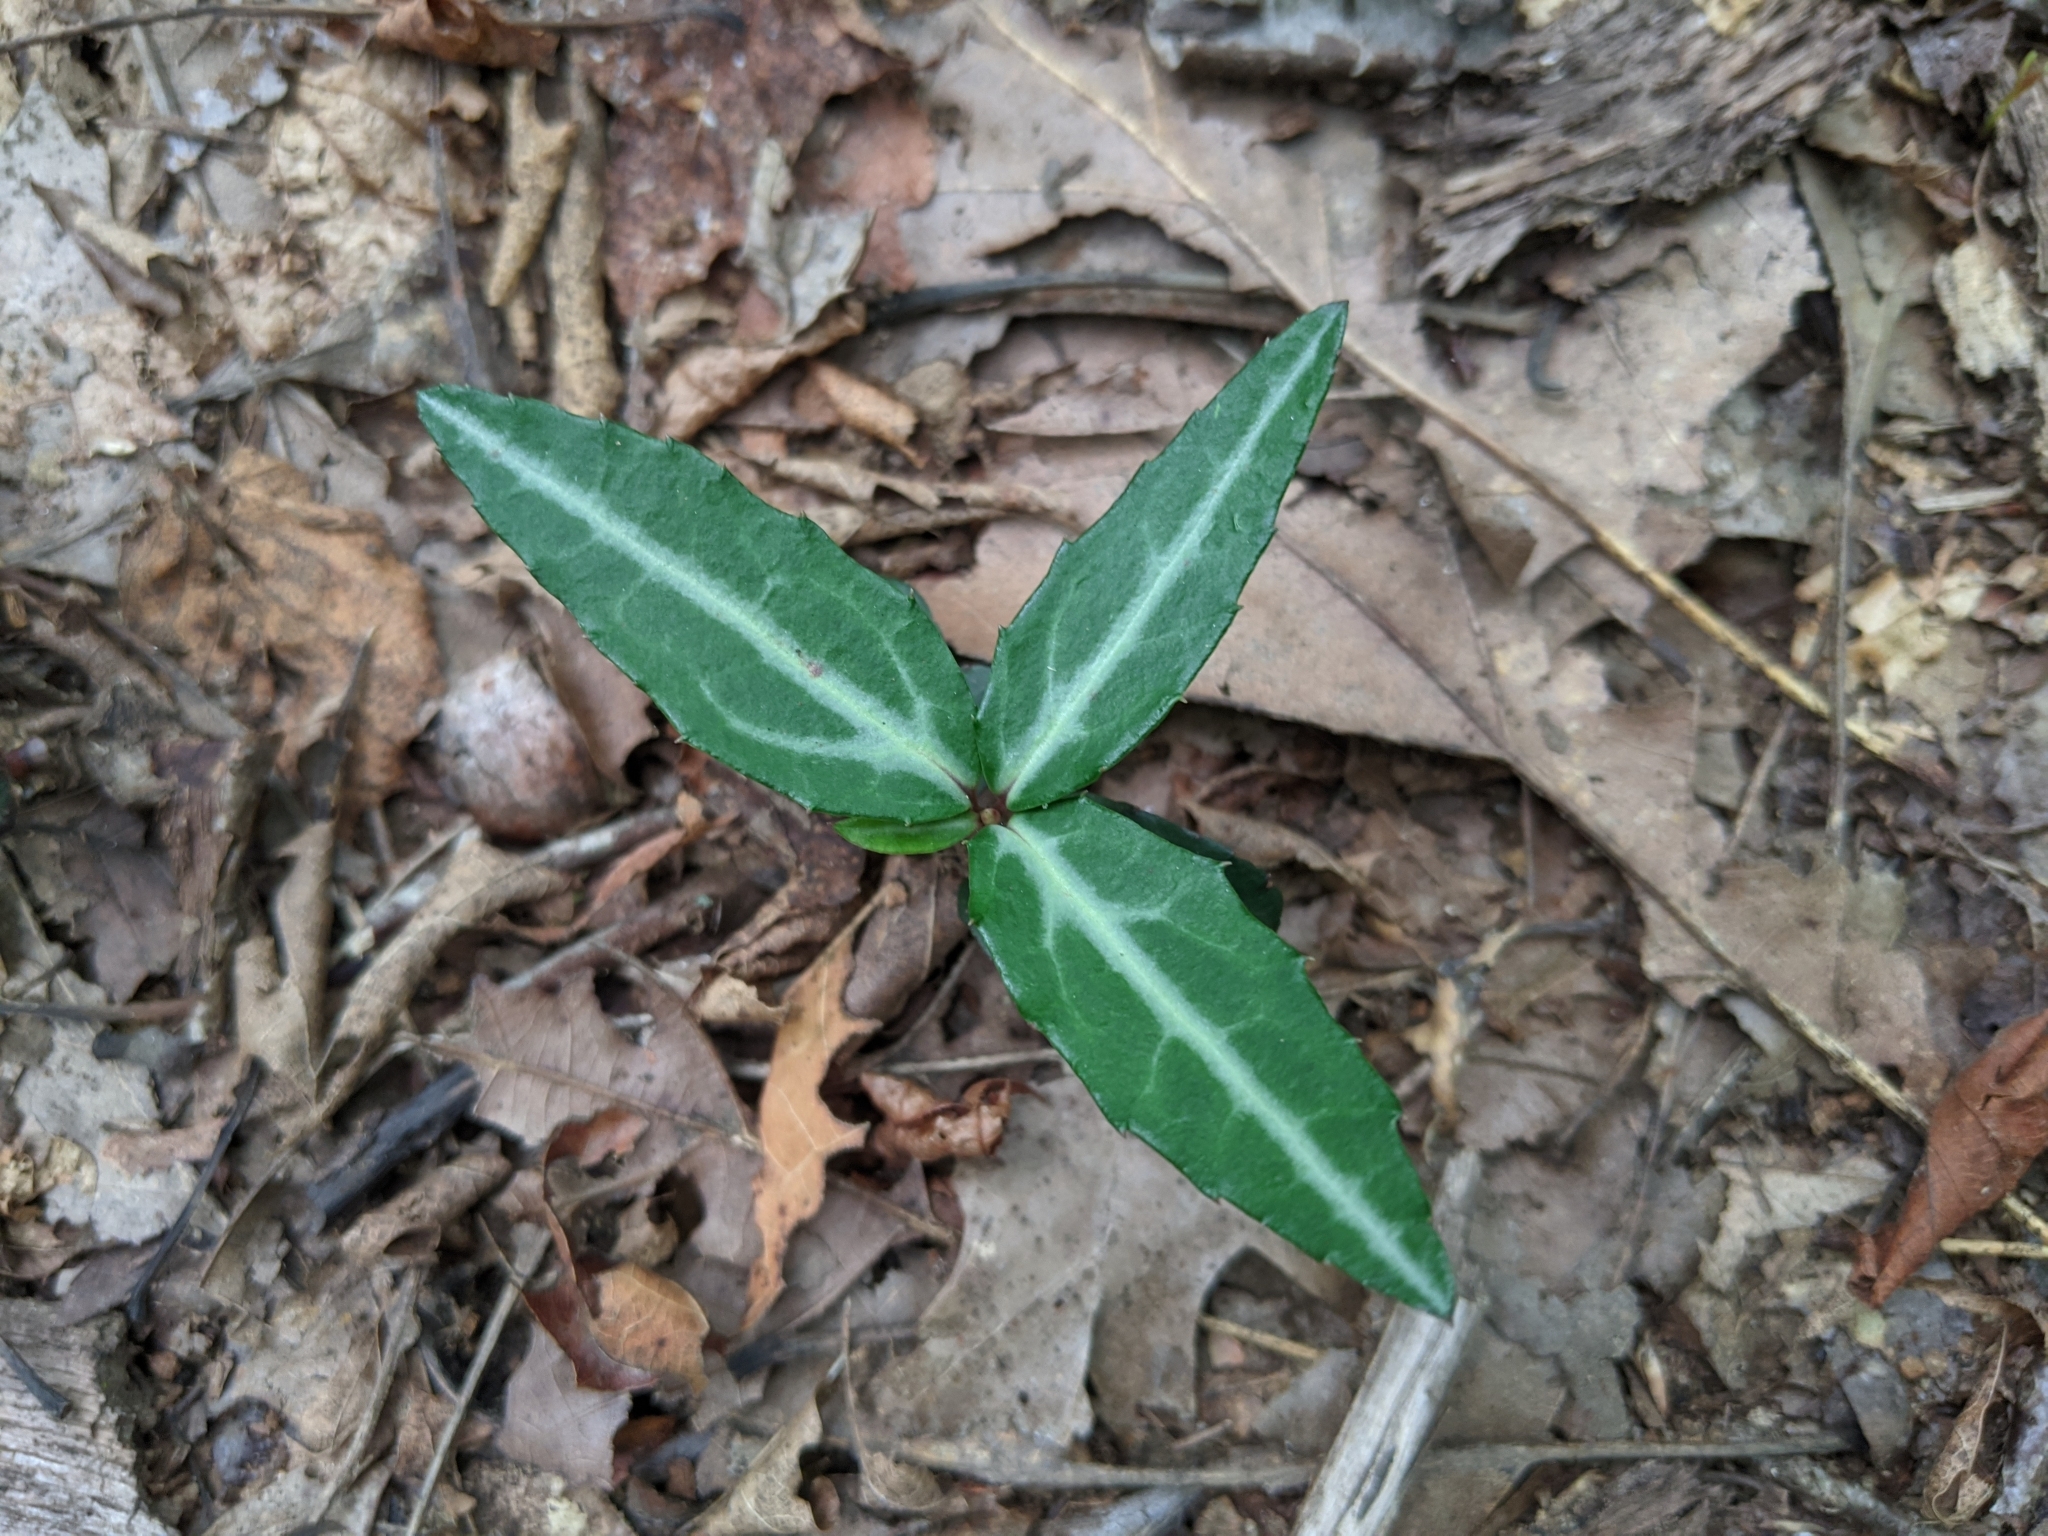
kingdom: Plantae
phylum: Tracheophyta
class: Magnoliopsida
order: Ericales
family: Ericaceae
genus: Chimaphila
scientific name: Chimaphila maculata
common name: Spotted pipsissewa
